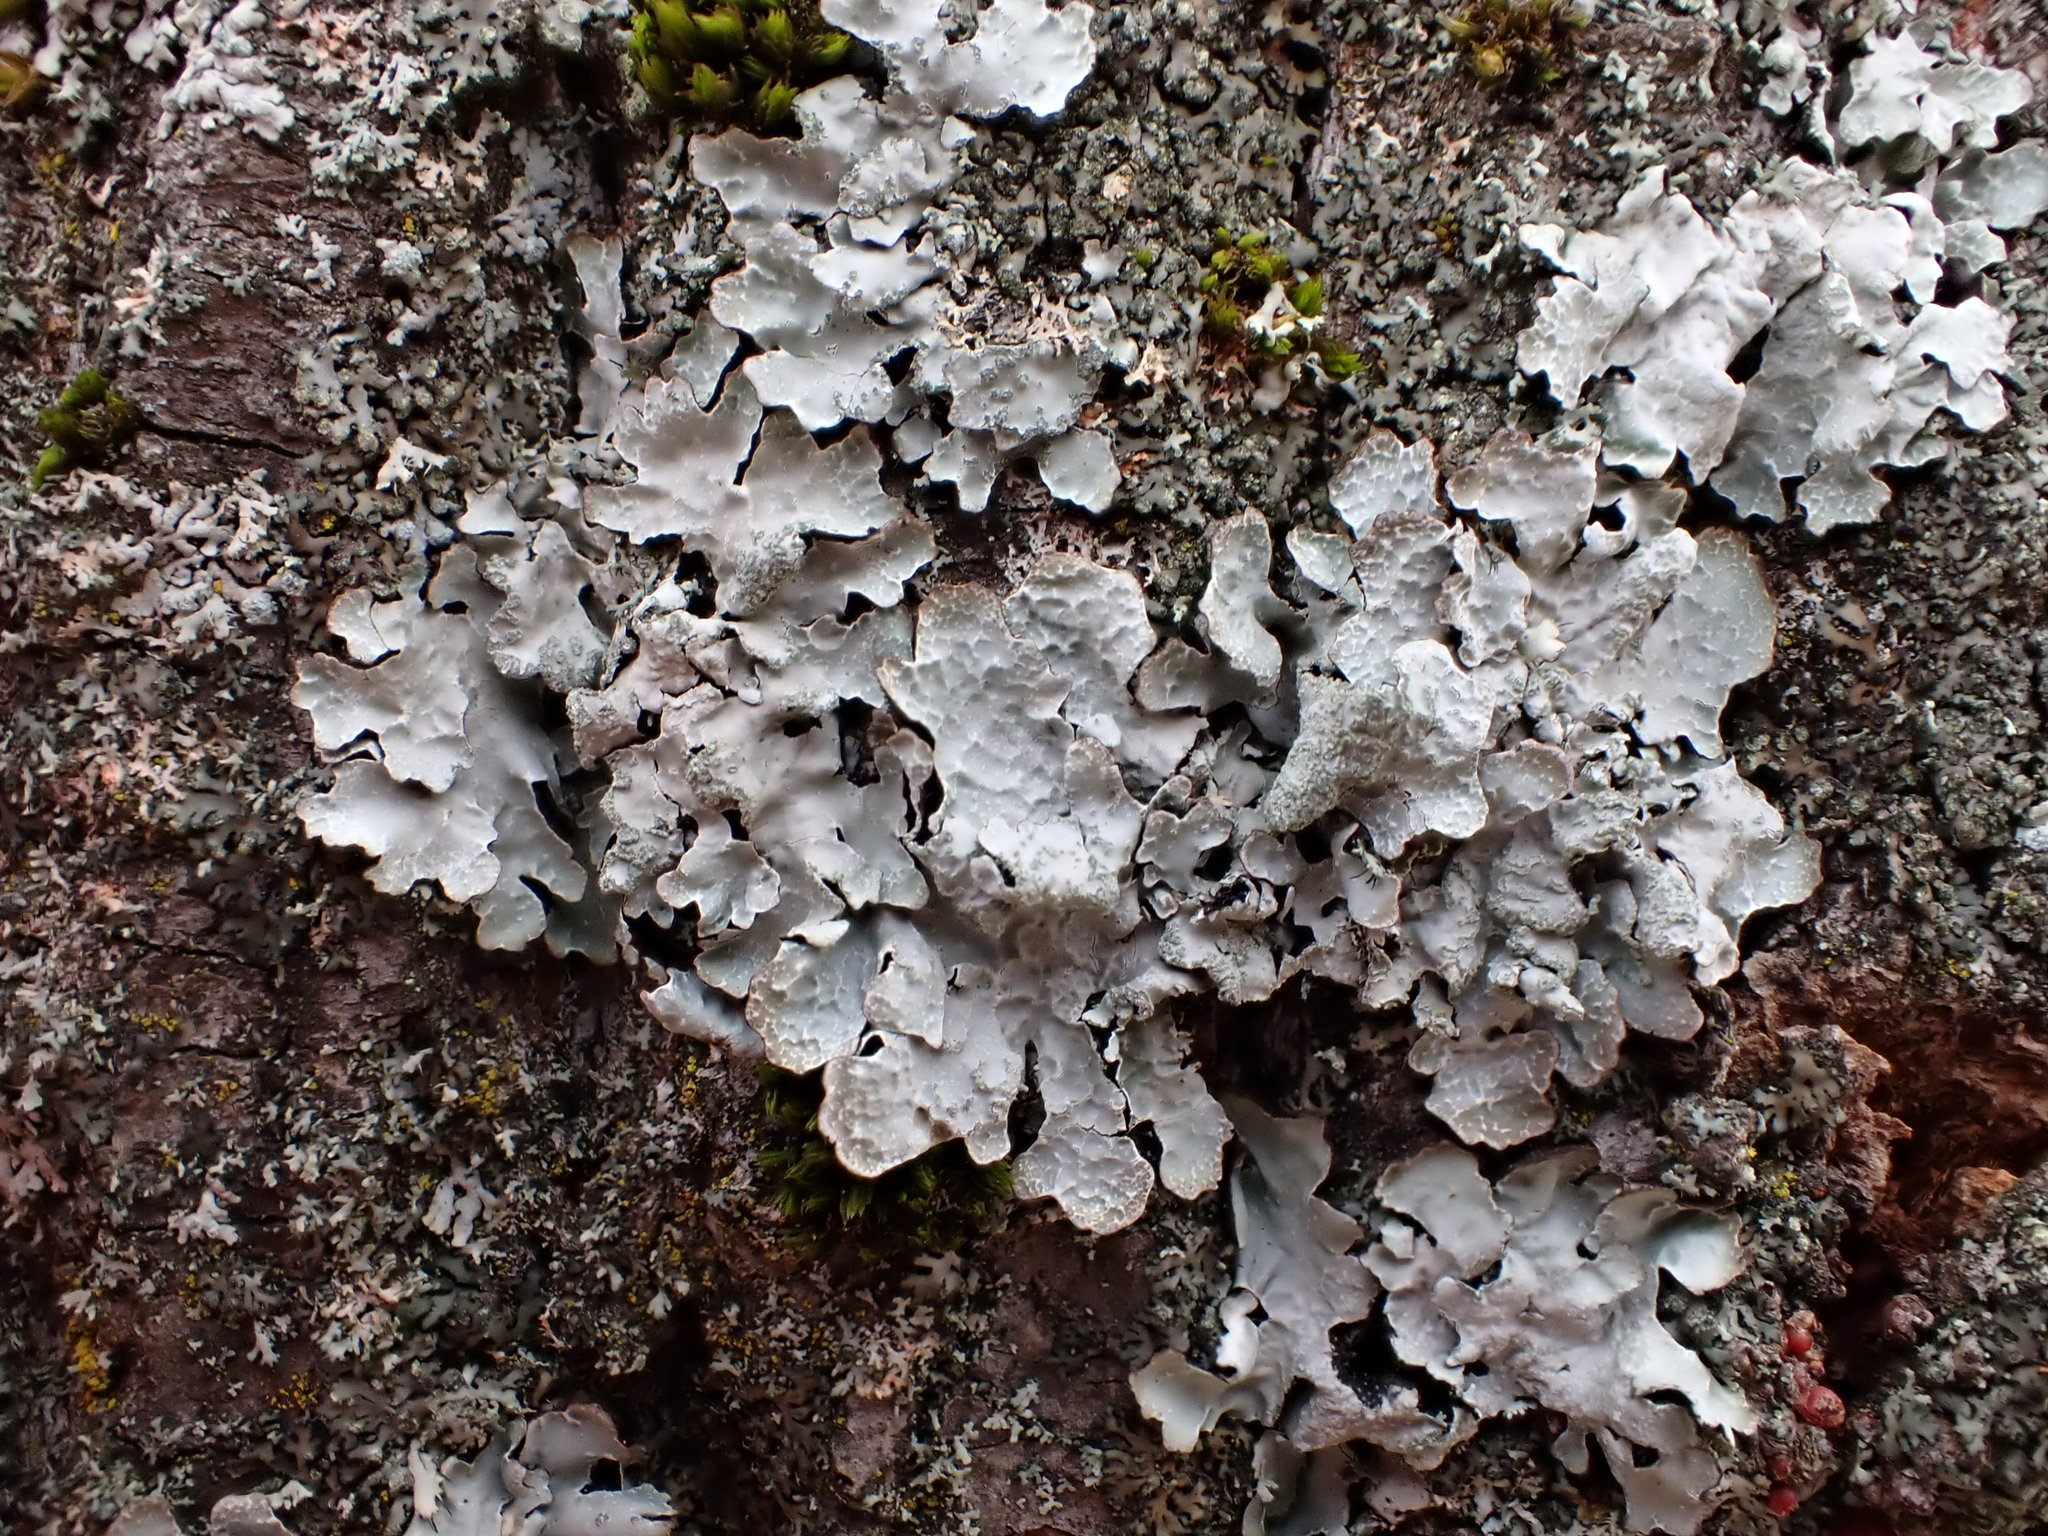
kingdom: Fungi
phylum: Ascomycota
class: Lecanoromycetes
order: Lecanorales
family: Parmeliaceae
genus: Parmelia
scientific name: Parmelia sulcata
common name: Netted shield lichen
